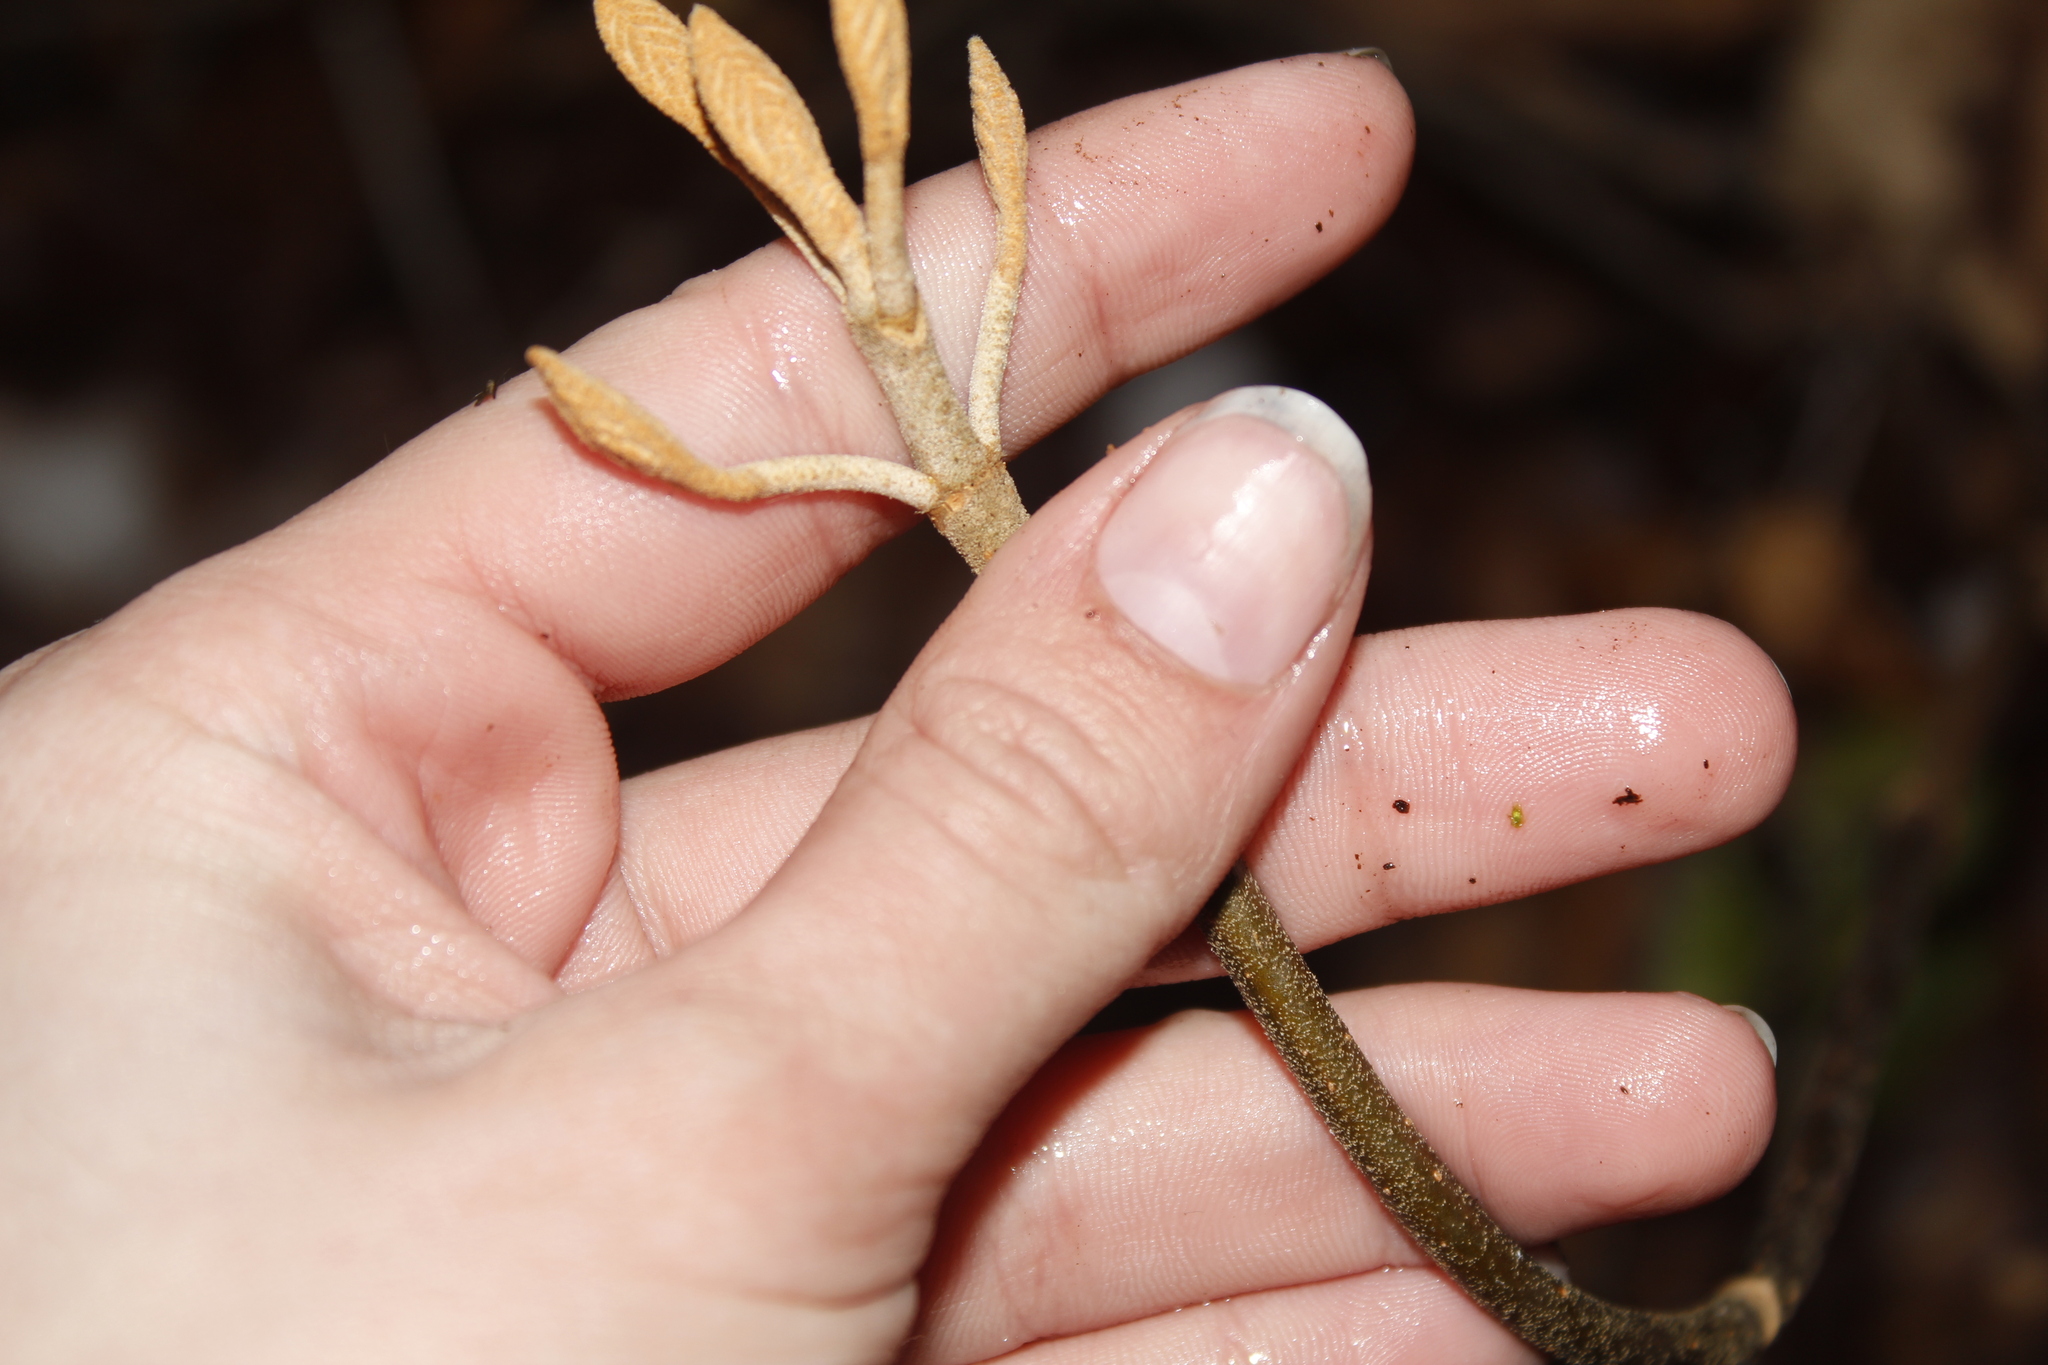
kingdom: Plantae
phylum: Tracheophyta
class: Magnoliopsida
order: Dipsacales
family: Viburnaceae
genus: Viburnum
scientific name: Viburnum lantanoides
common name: Hobblebush
